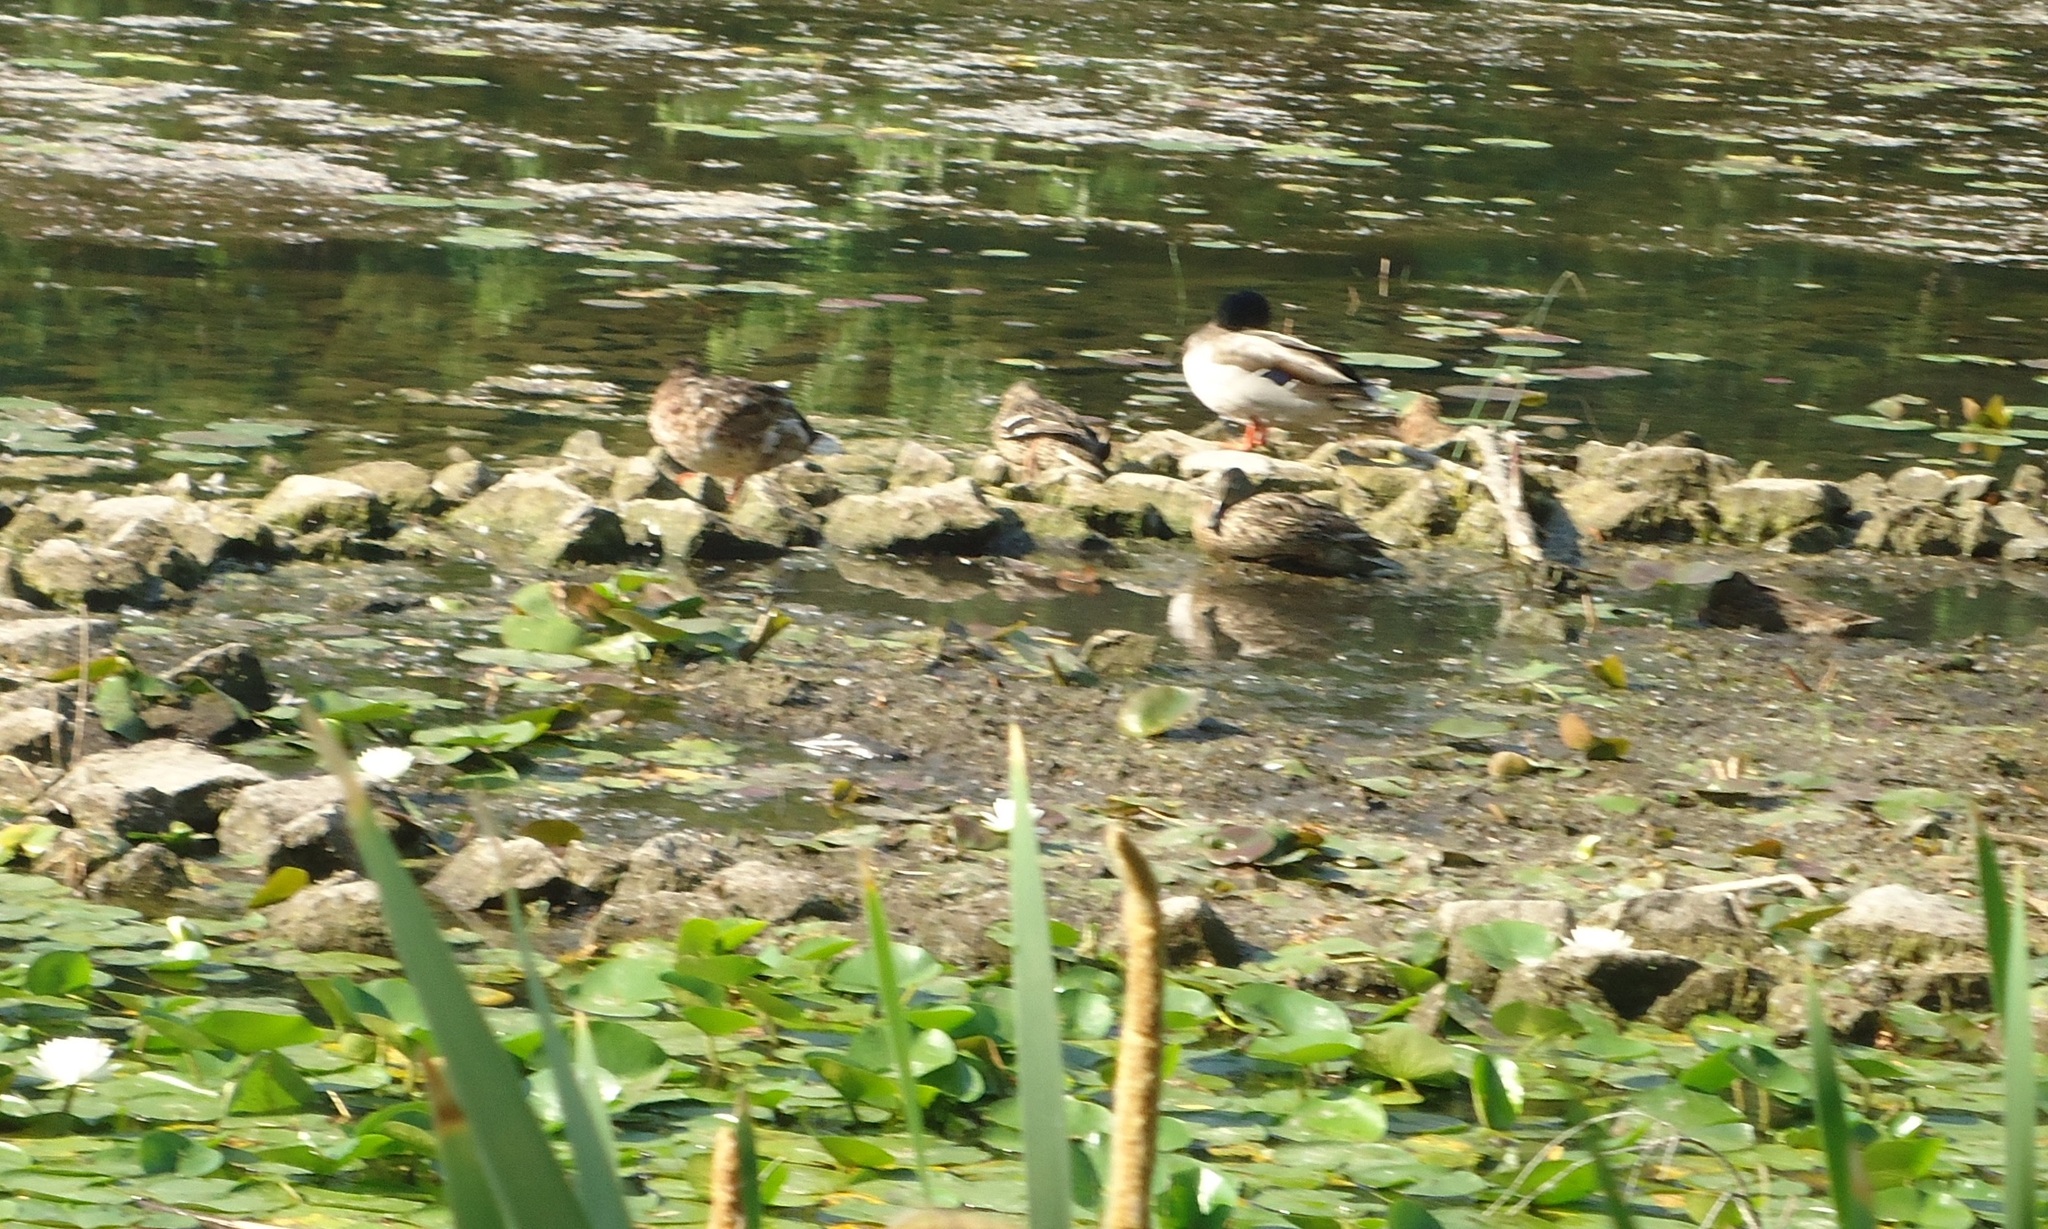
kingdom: Animalia
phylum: Chordata
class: Aves
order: Anseriformes
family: Anatidae
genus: Anas
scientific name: Anas platyrhynchos
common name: Mallard
